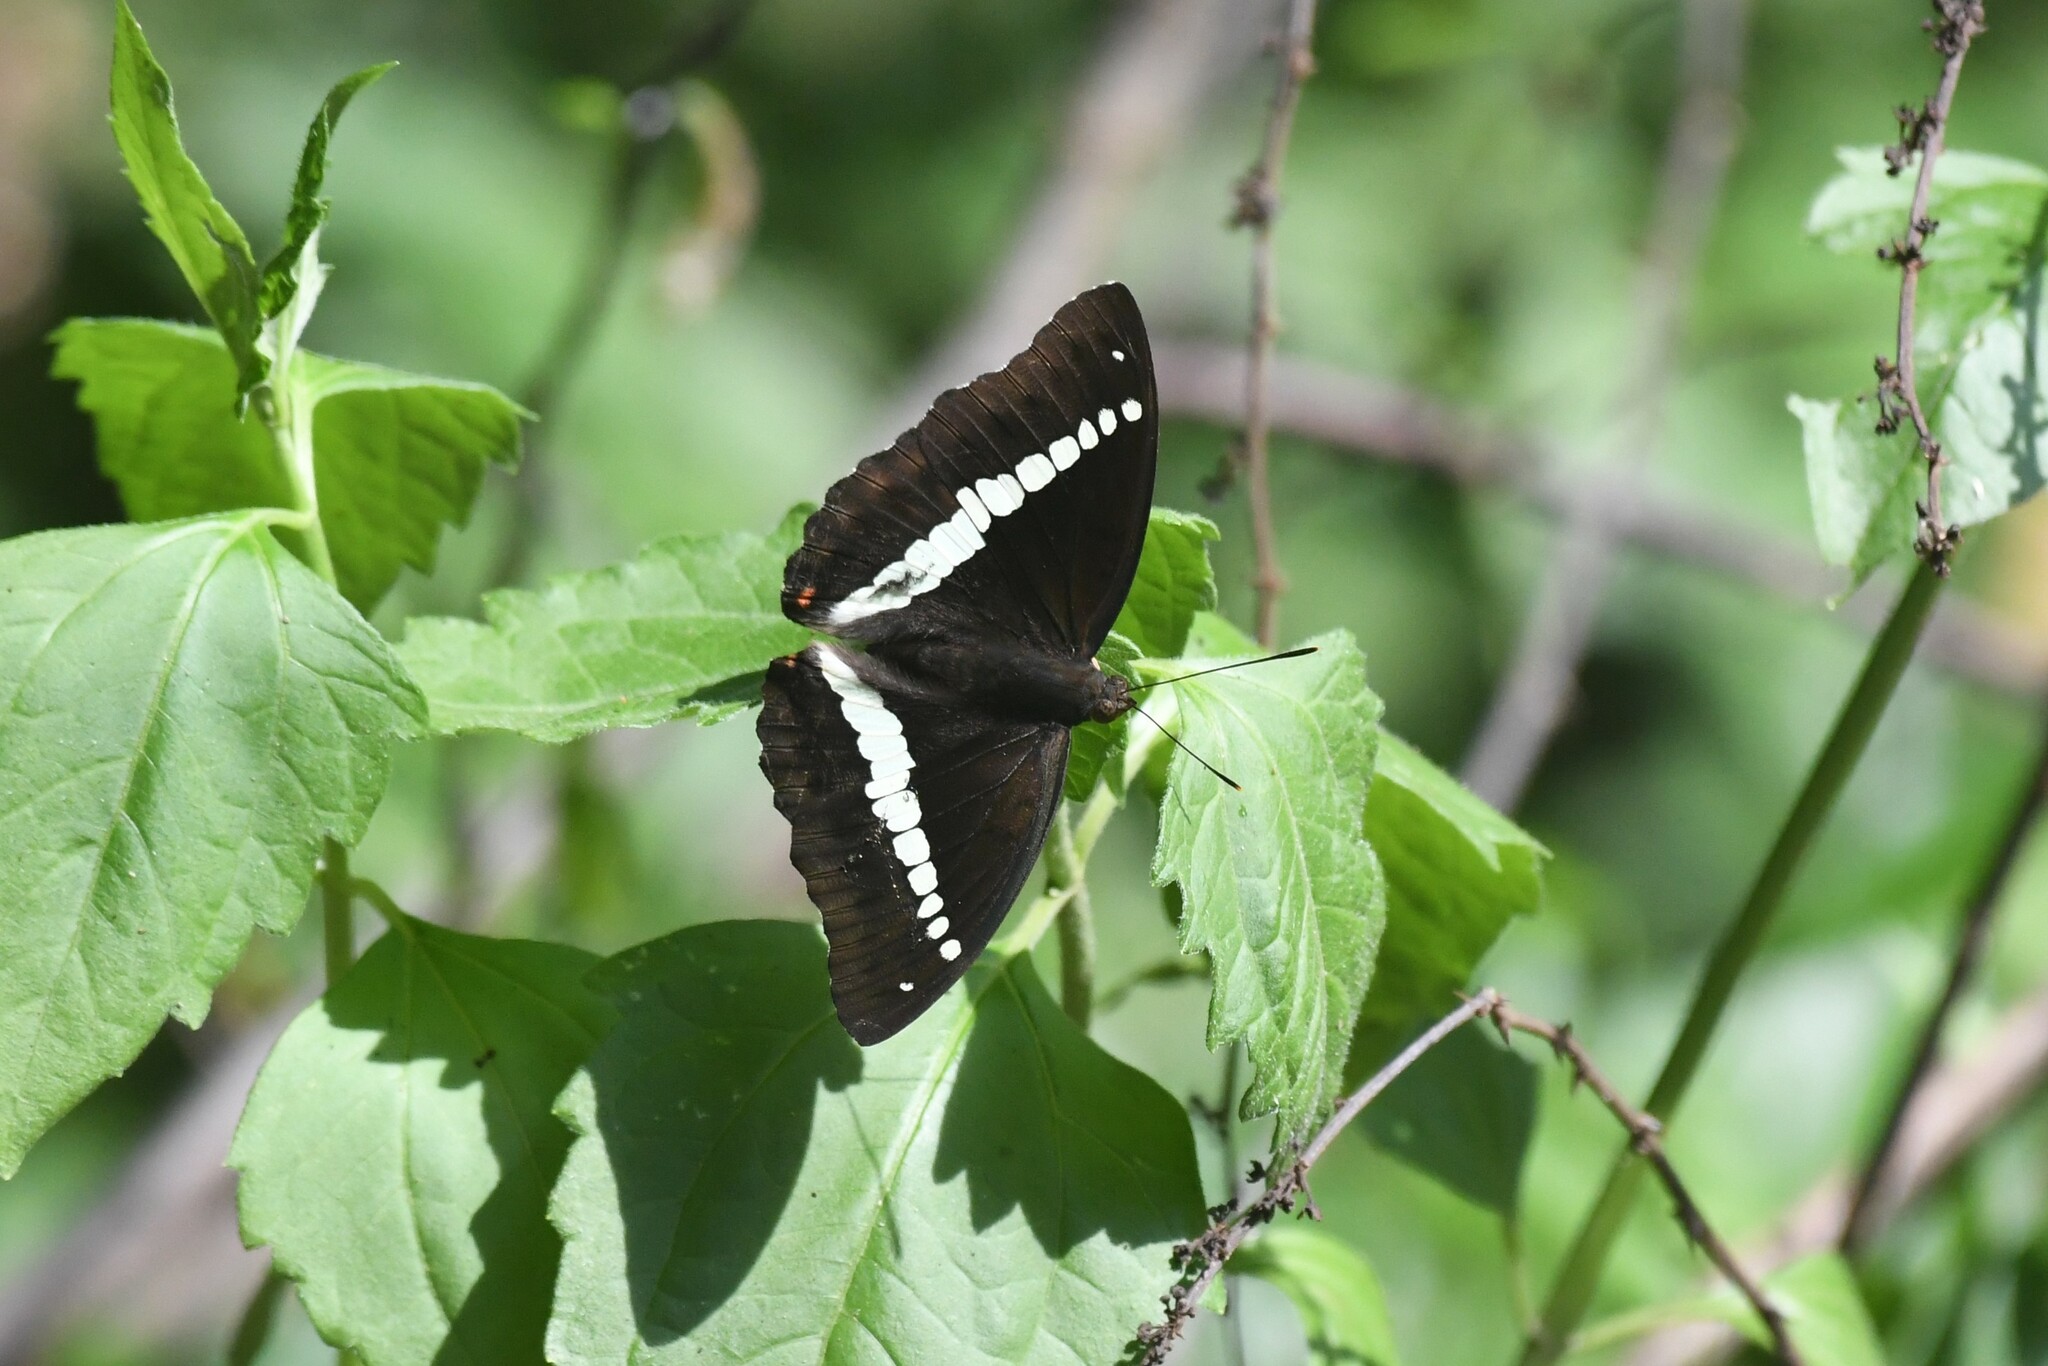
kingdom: Animalia
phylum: Arthropoda
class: Insecta
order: Lepidoptera
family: Nymphalidae
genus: Euthalia
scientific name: Euthalia recta
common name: Redtail marquis
